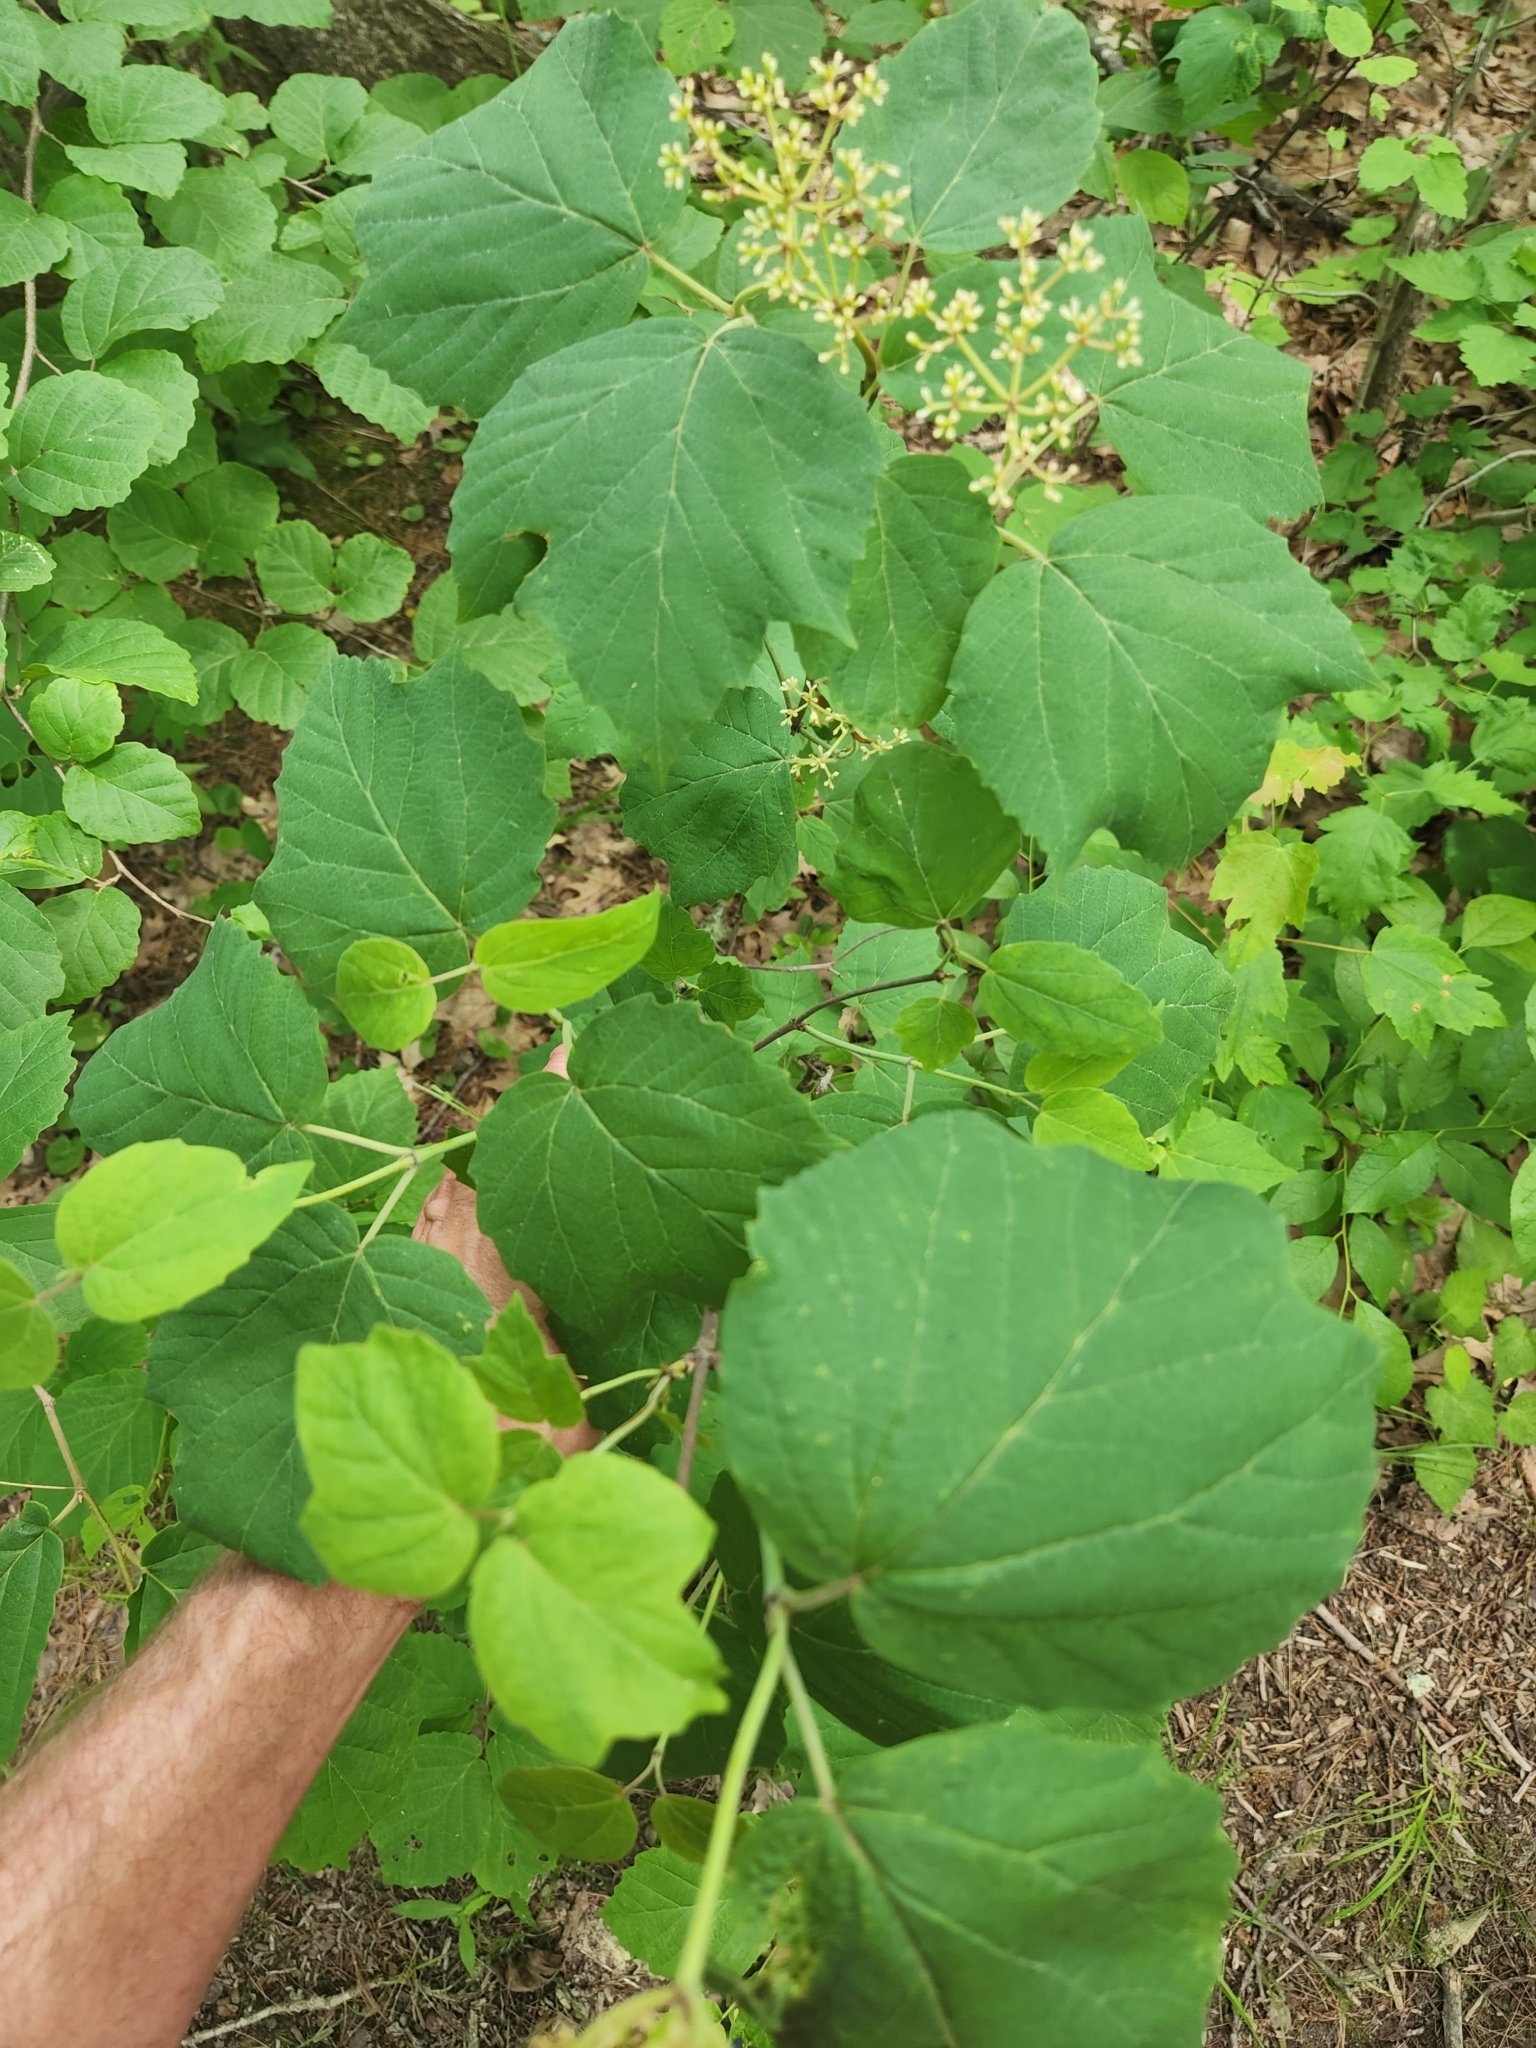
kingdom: Plantae
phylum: Tracheophyta
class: Magnoliopsida
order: Dipsacales
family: Viburnaceae
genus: Viburnum
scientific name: Viburnum acerifolium
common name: Dockmackie
